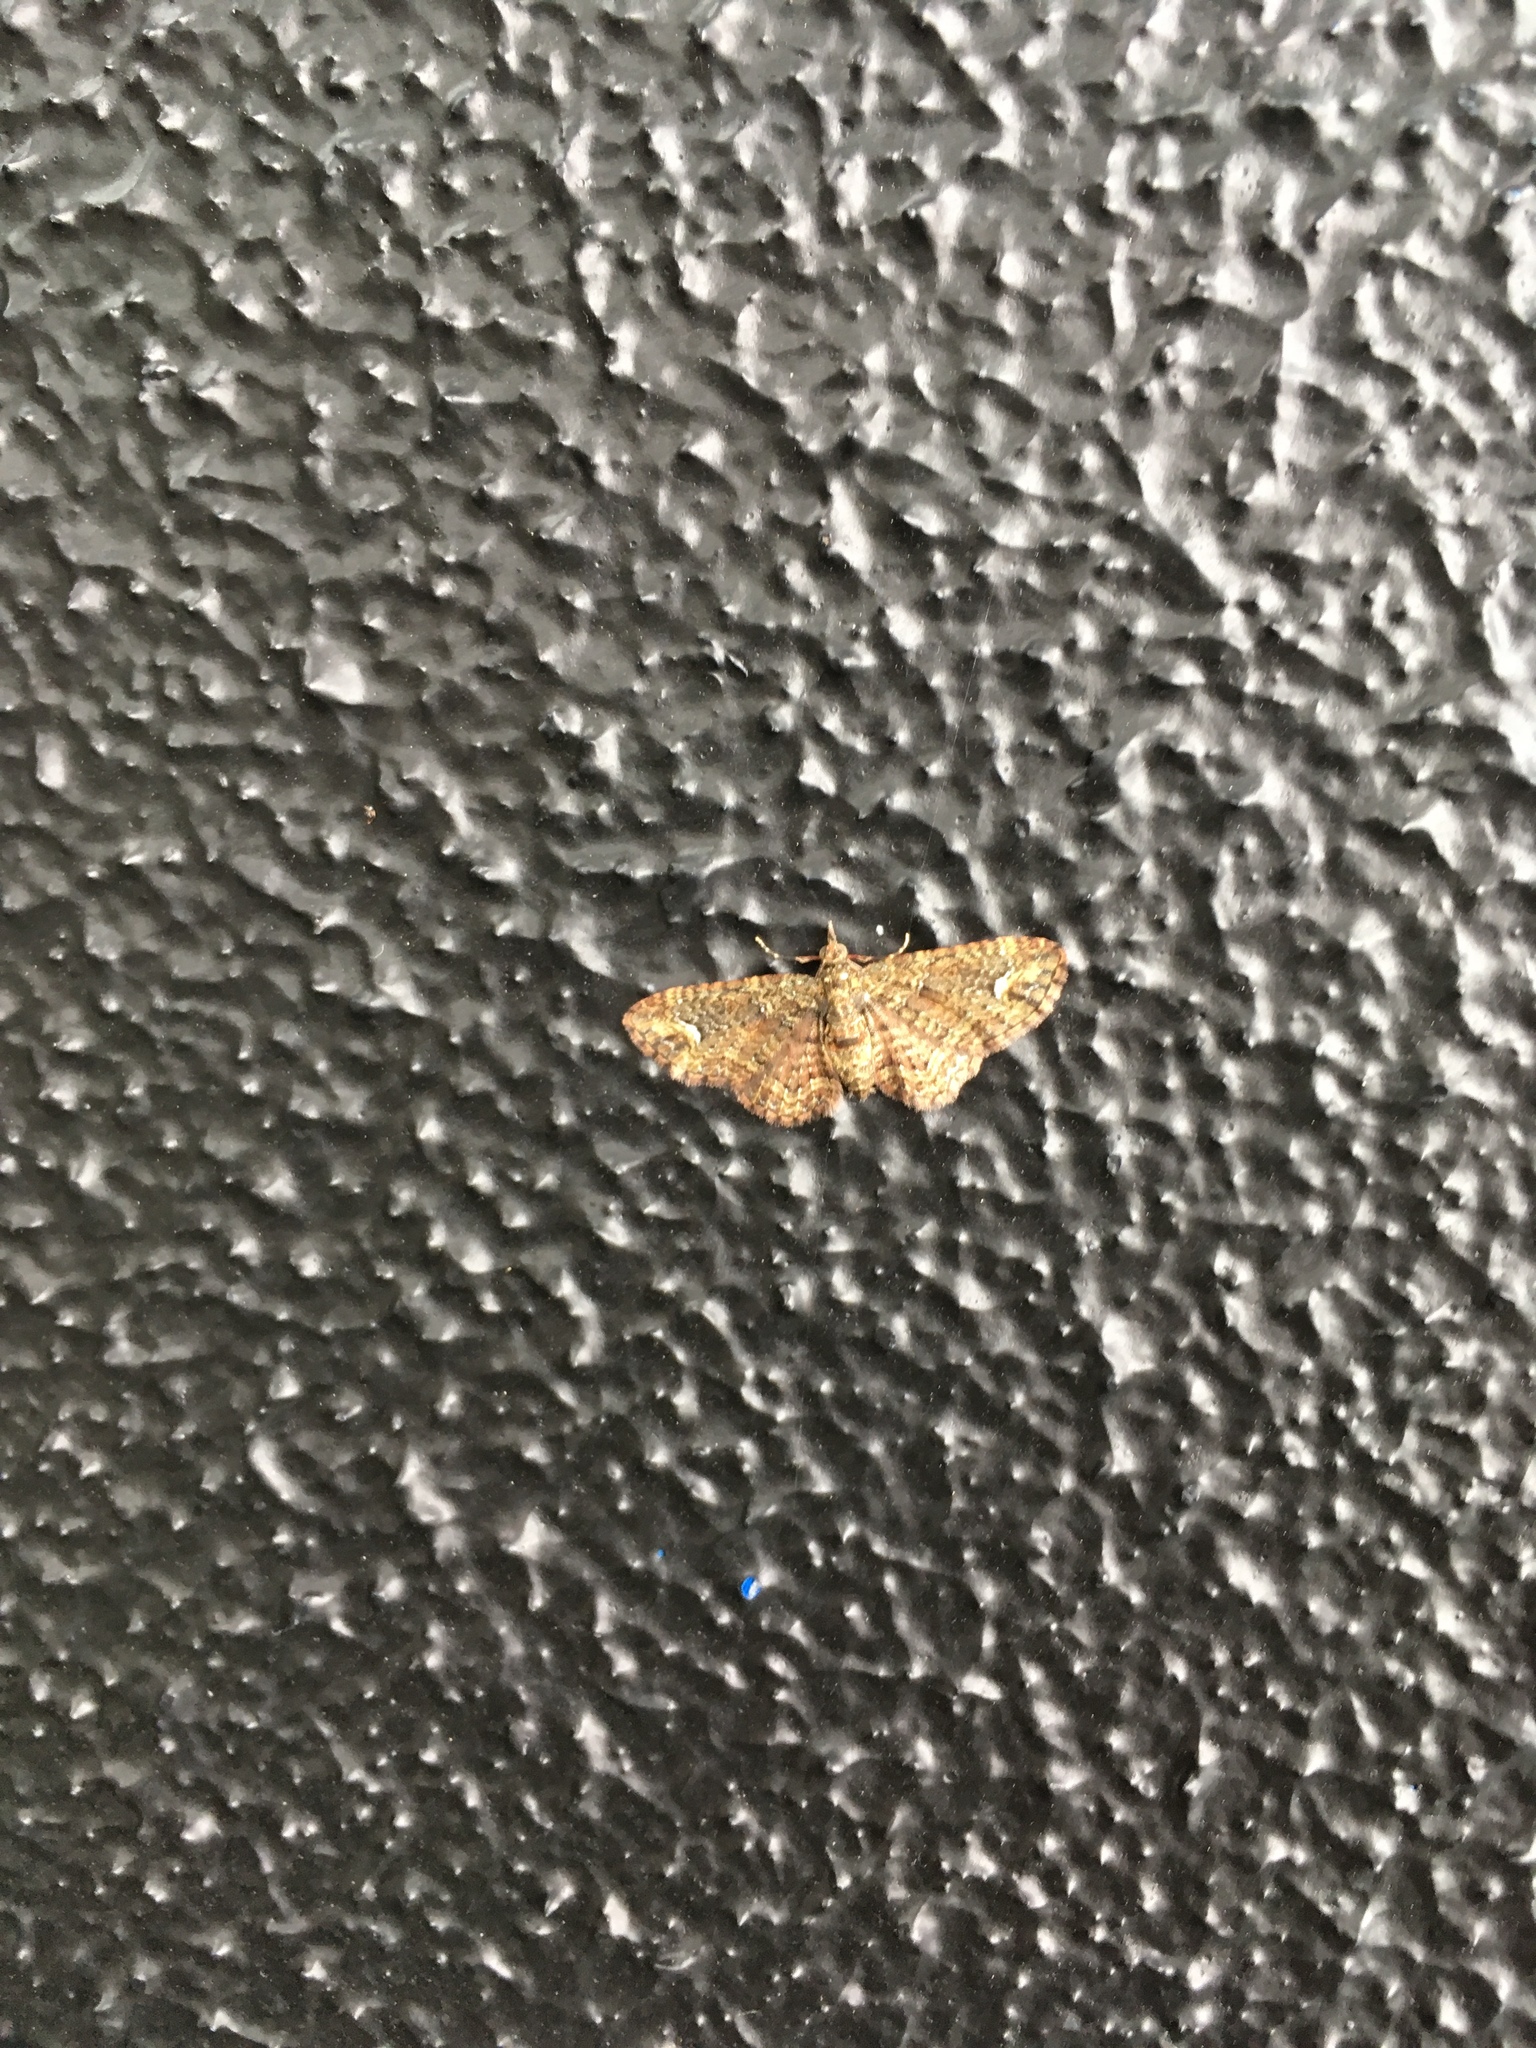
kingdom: Animalia
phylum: Arthropoda
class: Insecta
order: Lepidoptera
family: Geometridae
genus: Pasiphilodes
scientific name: Pasiphilodes testulata
